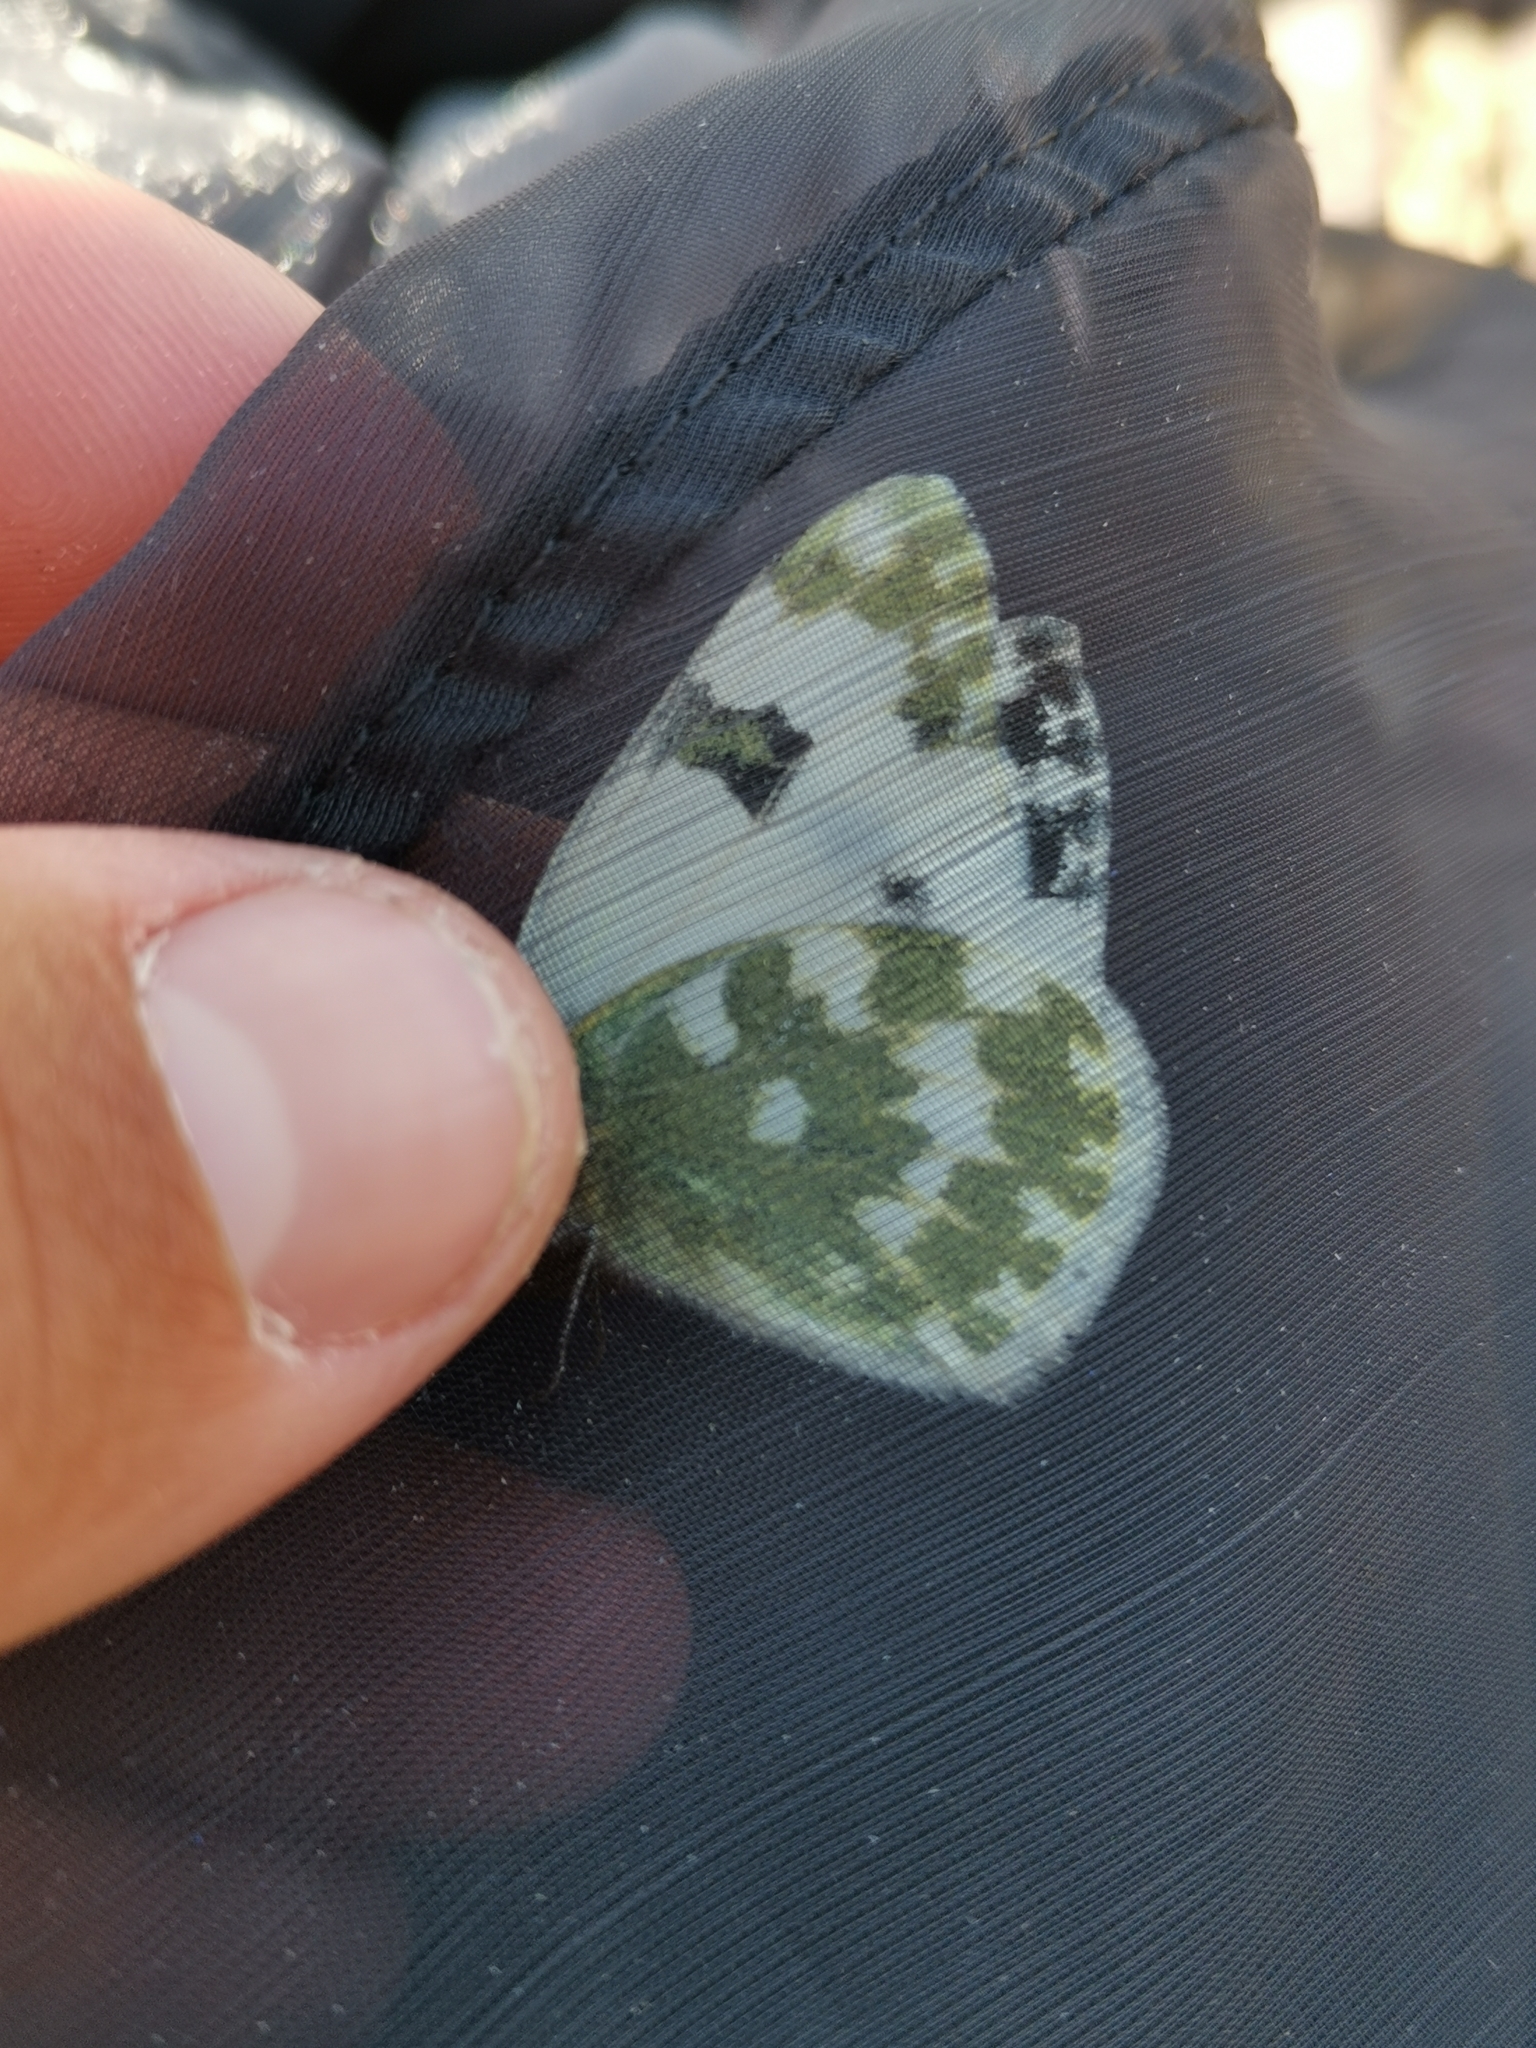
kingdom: Animalia
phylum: Arthropoda
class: Insecta
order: Lepidoptera
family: Pieridae
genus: Pontia
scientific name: Pontia daplidice
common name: Bath white
